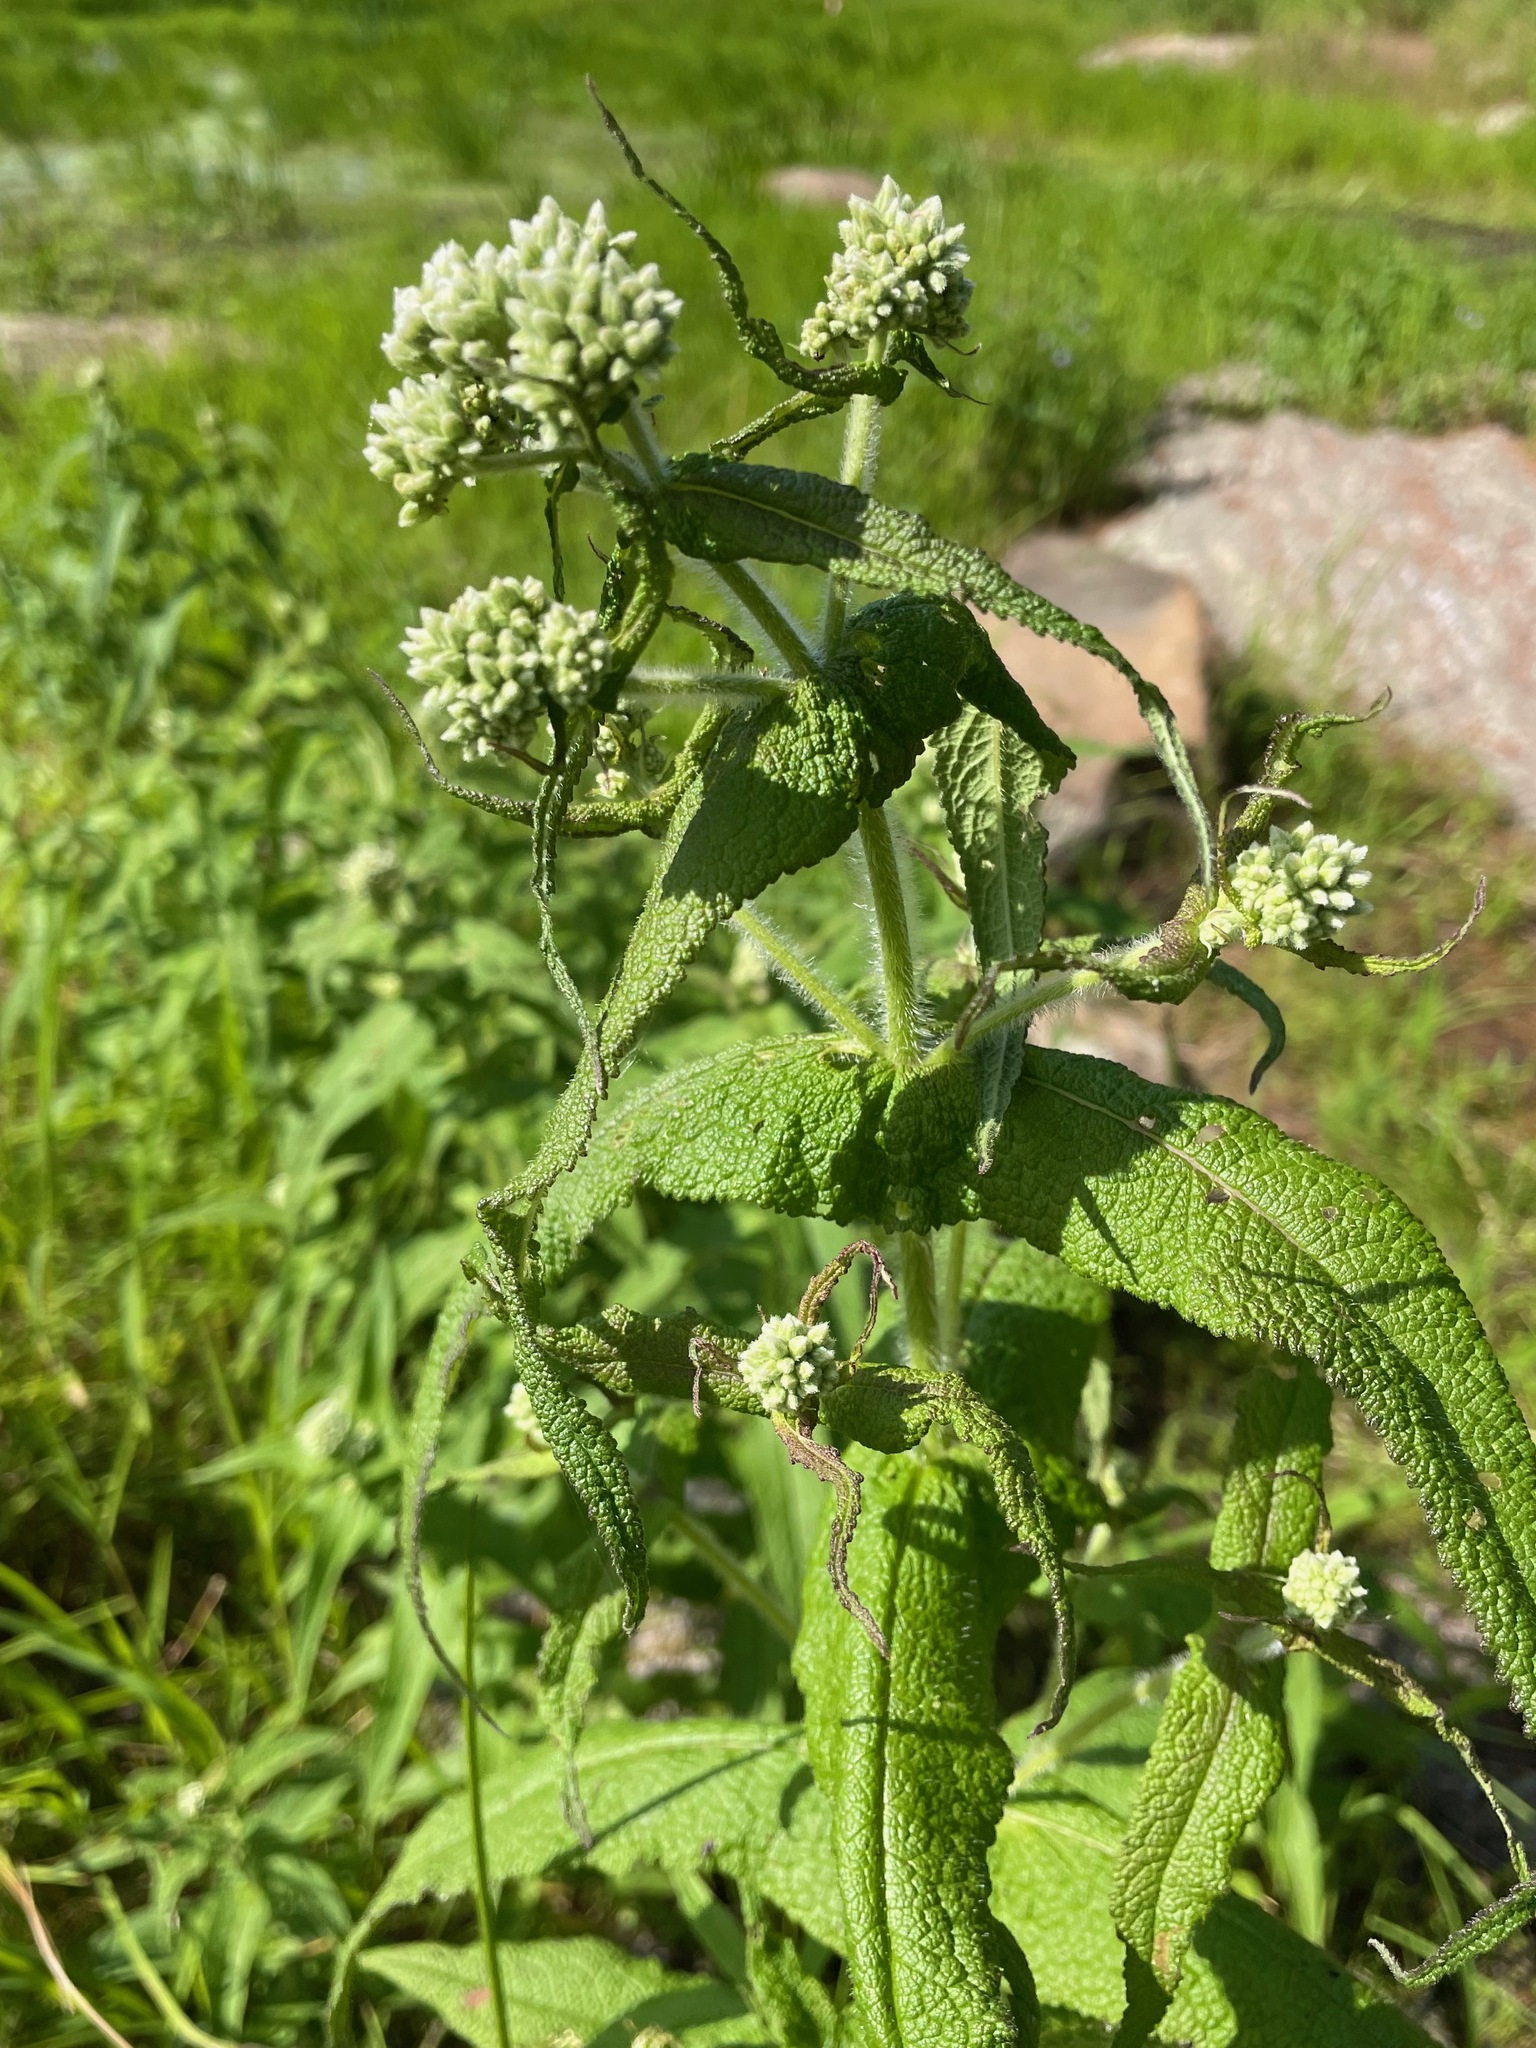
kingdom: Plantae
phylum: Tracheophyta
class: Magnoliopsida
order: Asterales
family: Asteraceae
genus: Eupatorium
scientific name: Eupatorium perfoliatum
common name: Boneset
